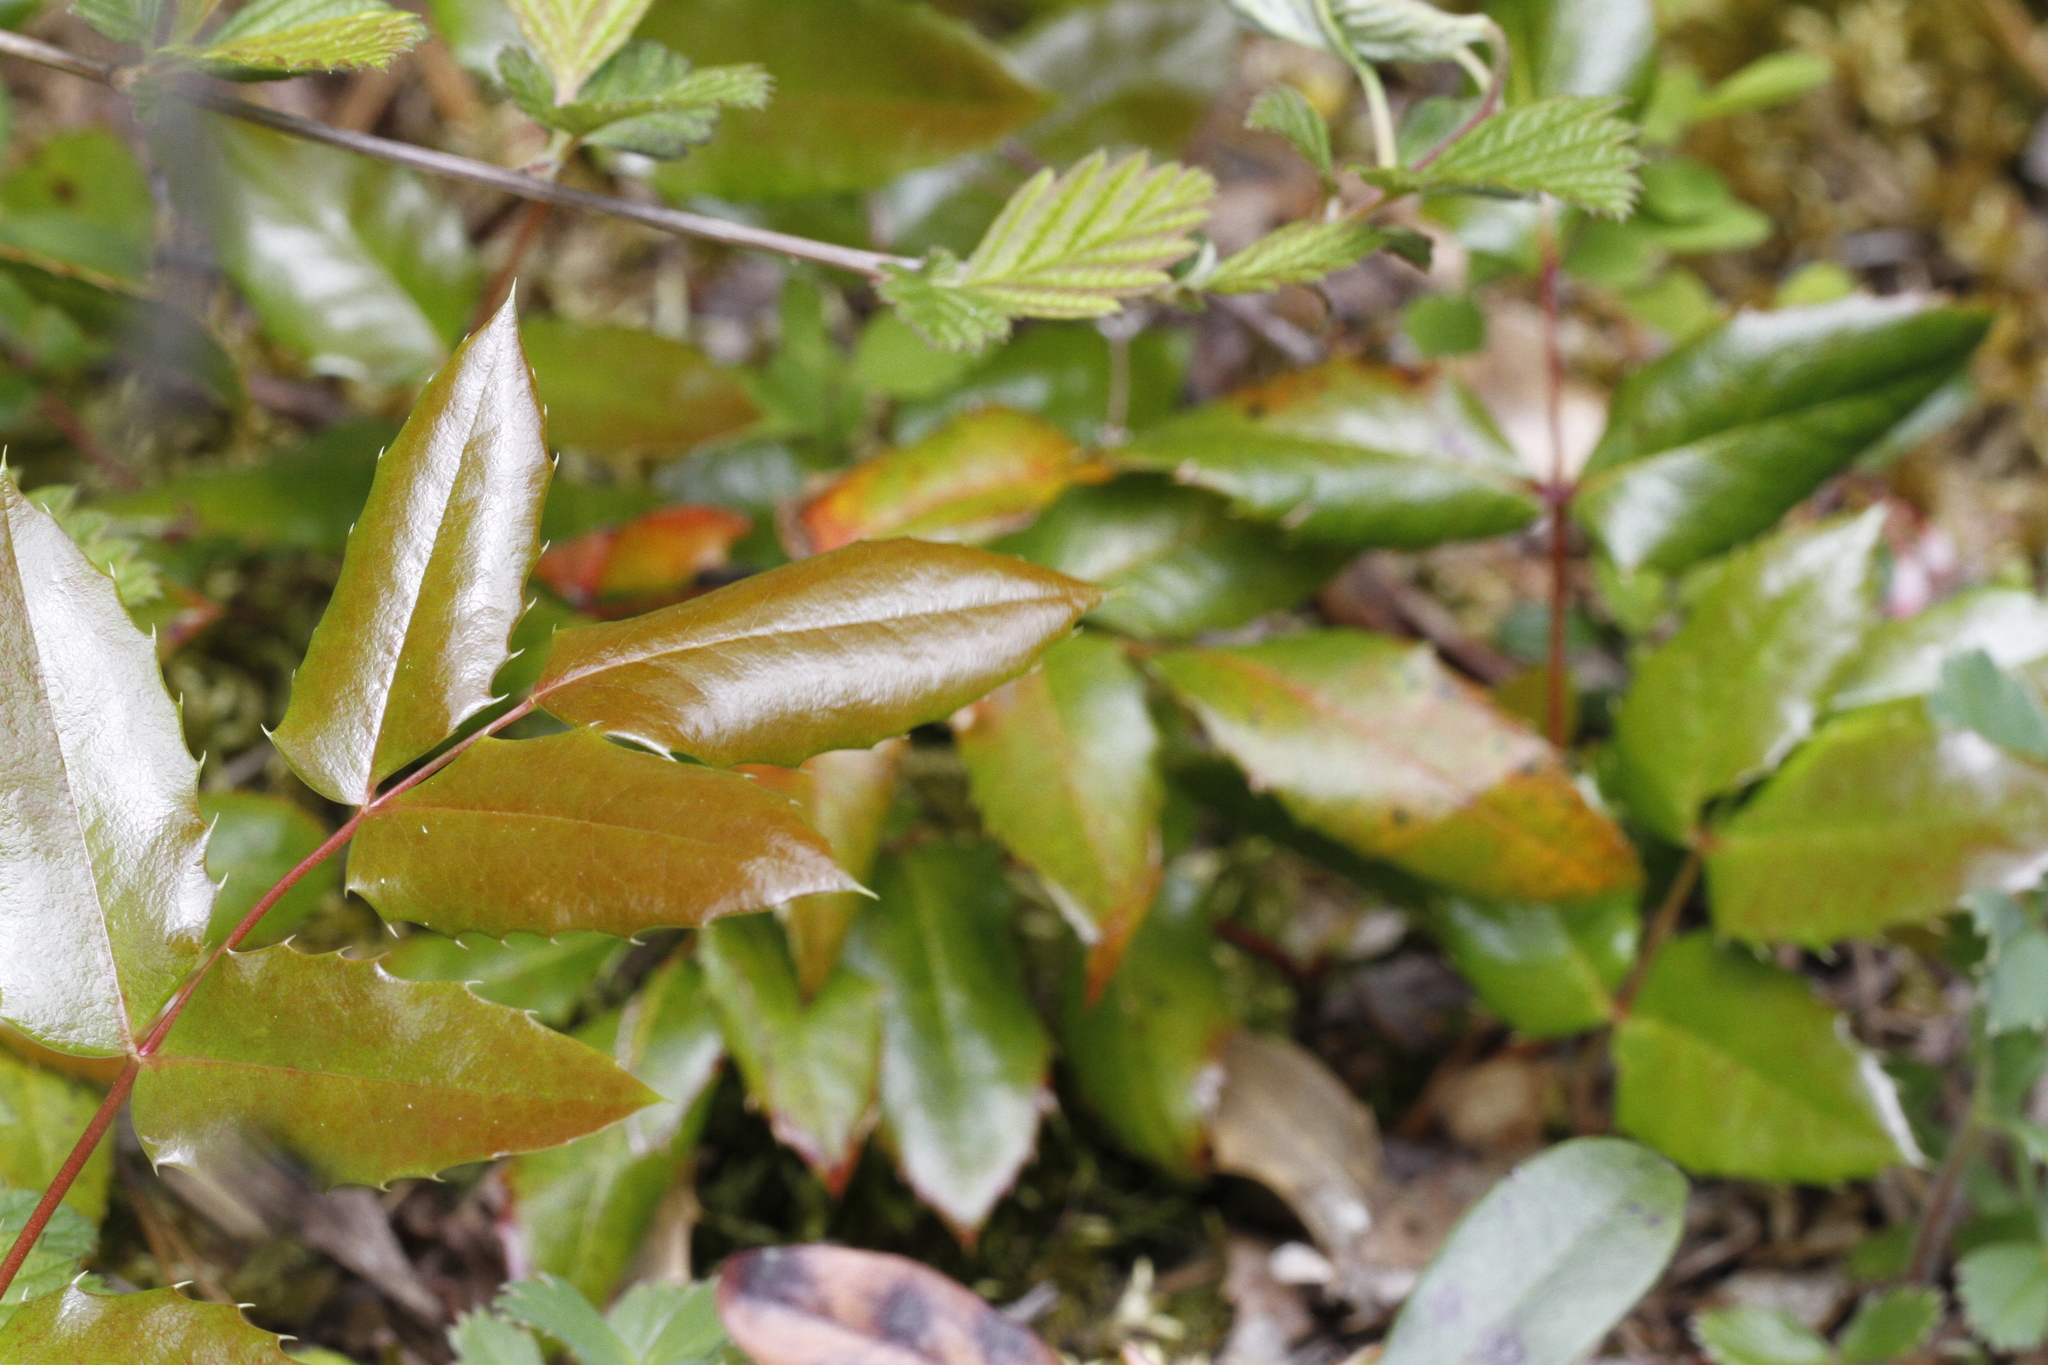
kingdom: Plantae
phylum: Tracheophyta
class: Magnoliopsida
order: Ranunculales
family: Berberidaceae
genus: Mahonia
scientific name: Mahonia aquifolium
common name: Oregon-grape
